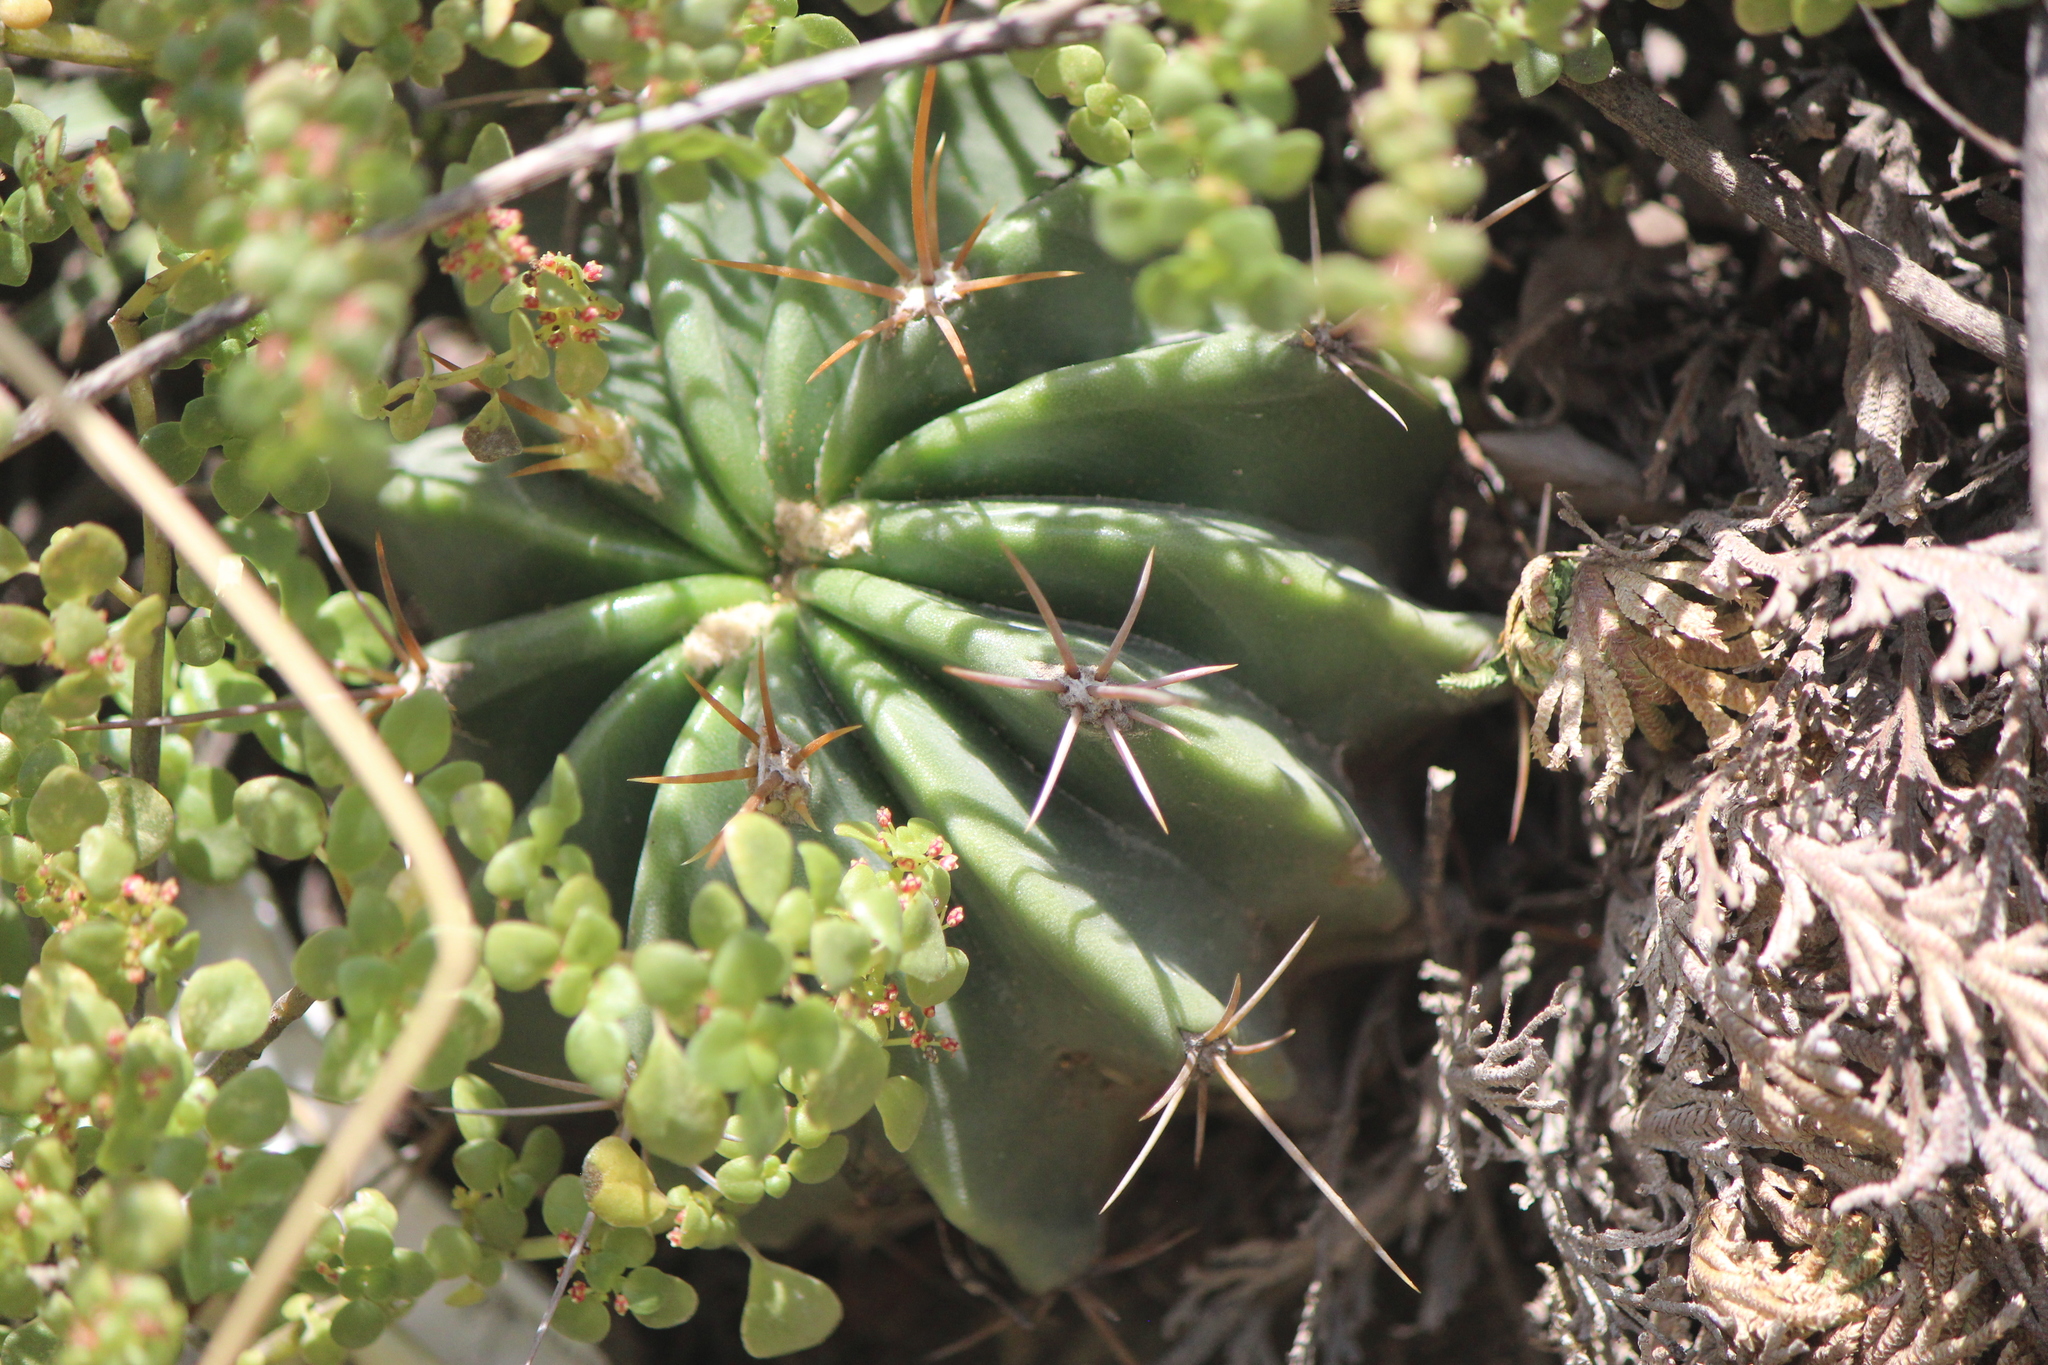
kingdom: Plantae
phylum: Tracheophyta
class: Magnoliopsida
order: Caryophyllales
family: Cactaceae
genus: Parrycactus
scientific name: Parrycactus echidne
